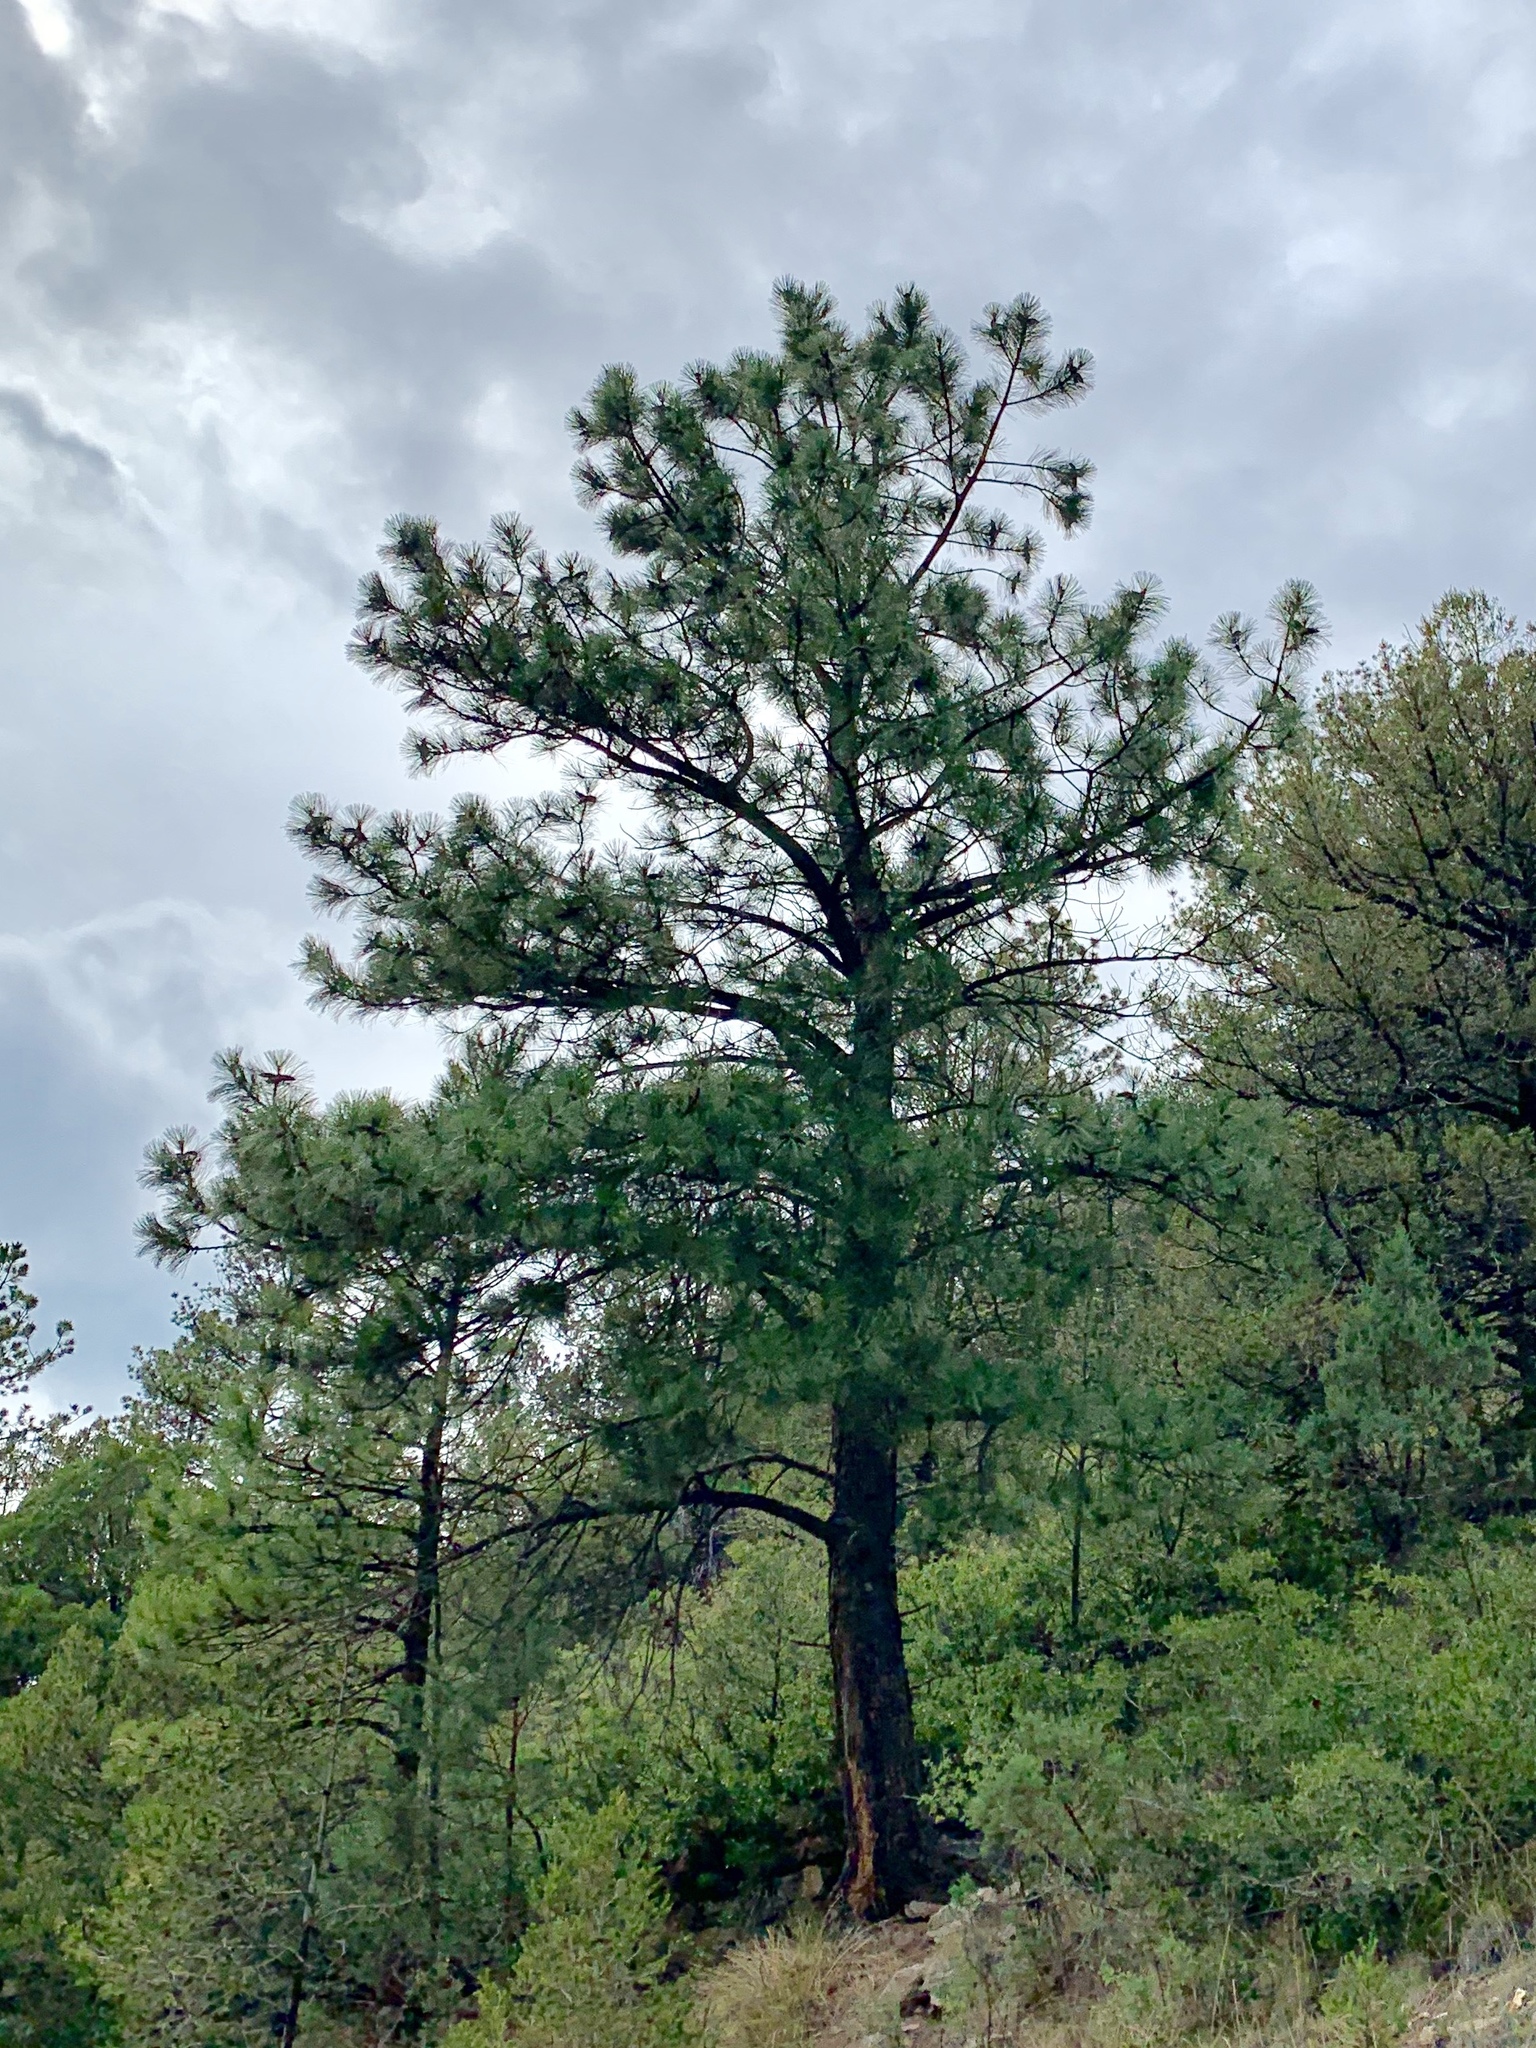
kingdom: Plantae
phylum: Tracheophyta
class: Pinopsida
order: Pinales
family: Pinaceae
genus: Pinus
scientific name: Pinus ponderosa
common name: Western yellow-pine
